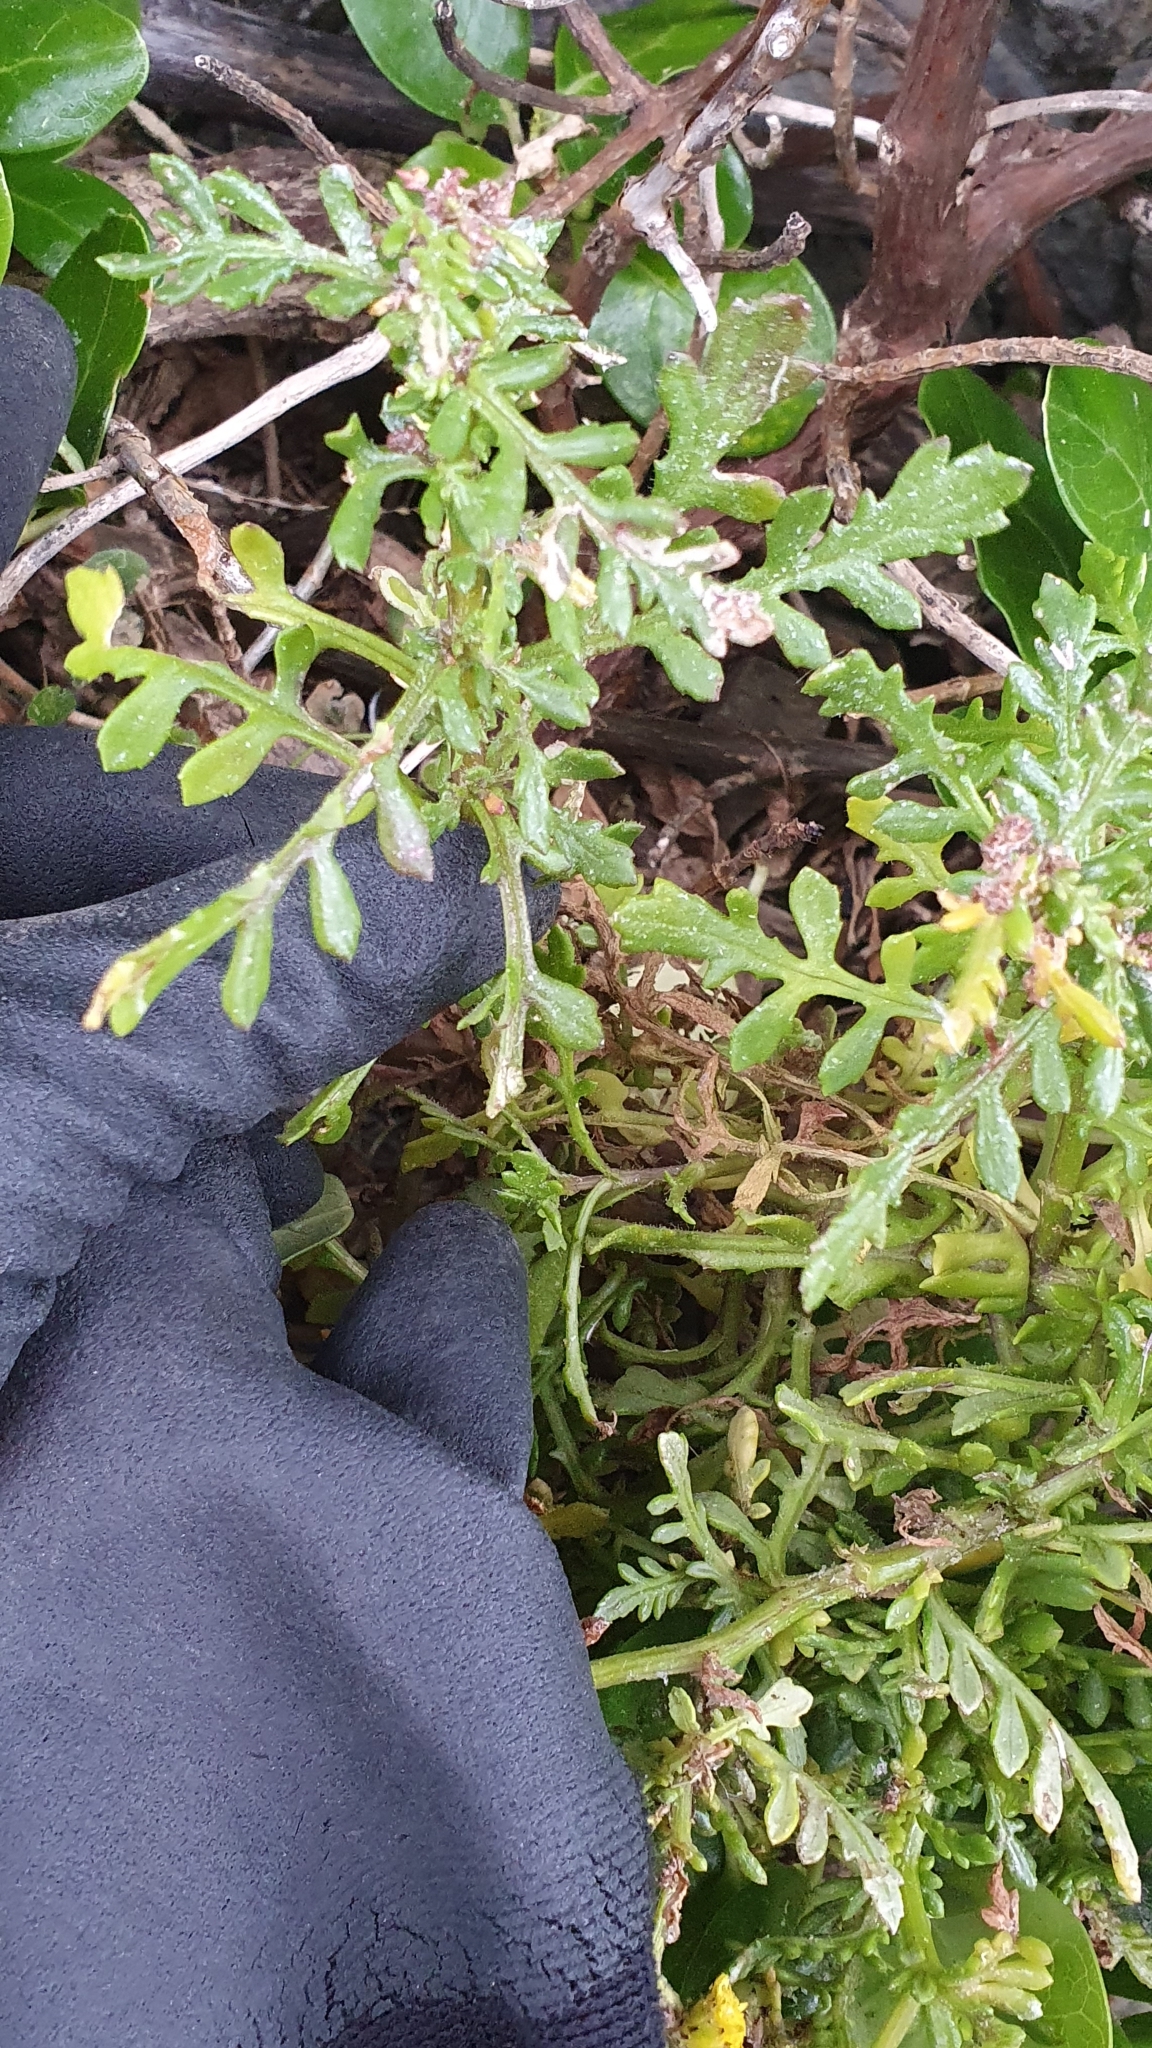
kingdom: Plantae
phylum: Tracheophyta
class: Magnoliopsida
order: Asterales
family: Asteraceae
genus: Senecio
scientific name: Senecio lautus
